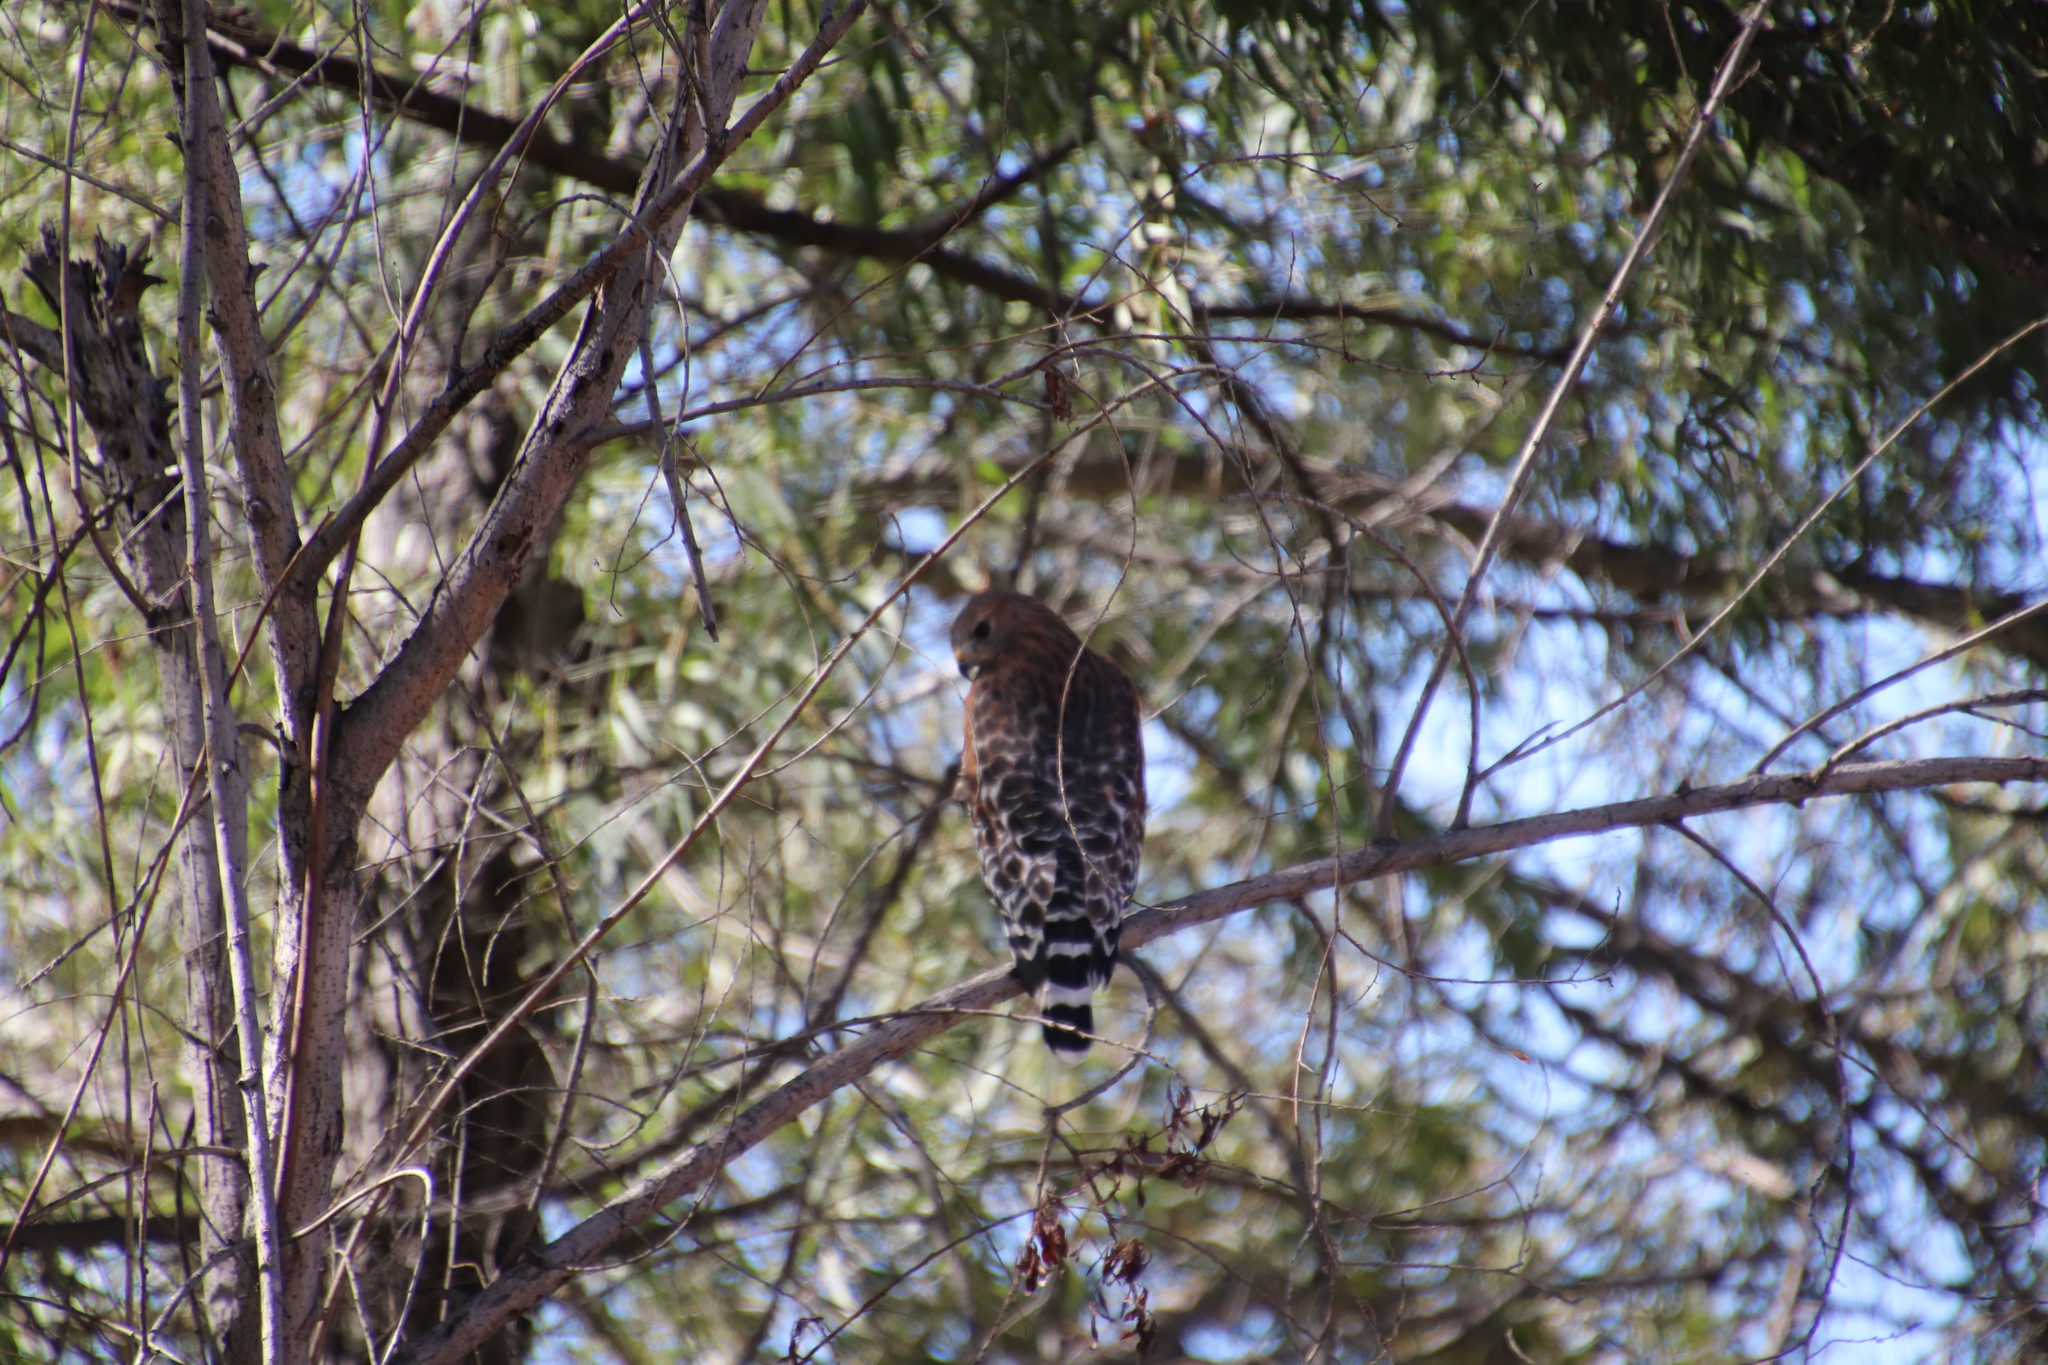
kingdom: Animalia
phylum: Chordata
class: Aves
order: Accipitriformes
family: Accipitridae
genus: Buteo
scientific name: Buteo lineatus
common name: Red-shouldered hawk
